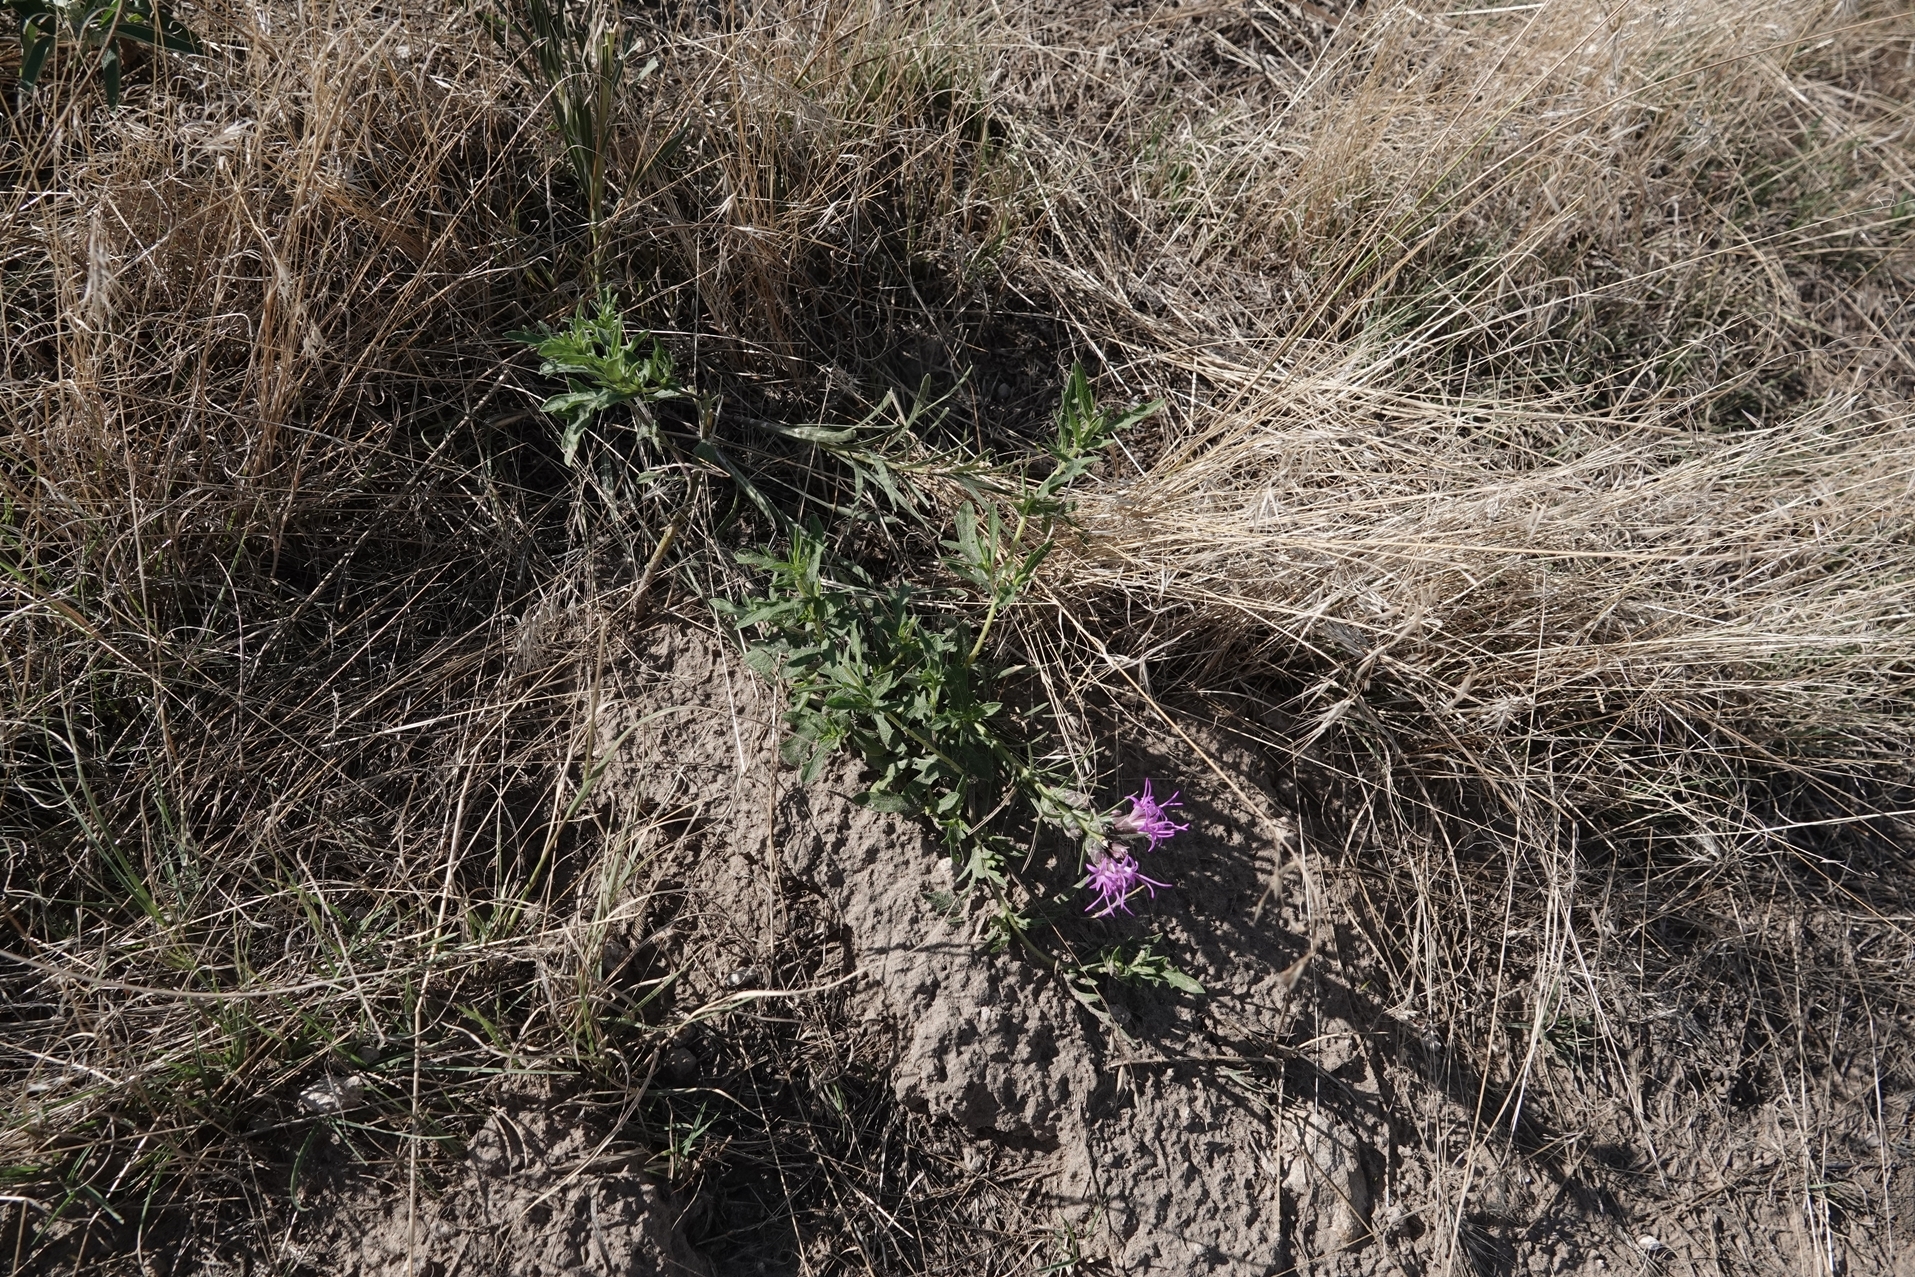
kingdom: Plantae
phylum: Tracheophyta
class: Magnoliopsida
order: Asterales
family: Asteraceae
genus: Liatris
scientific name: Liatris punctata
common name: Dotted gayfeather
